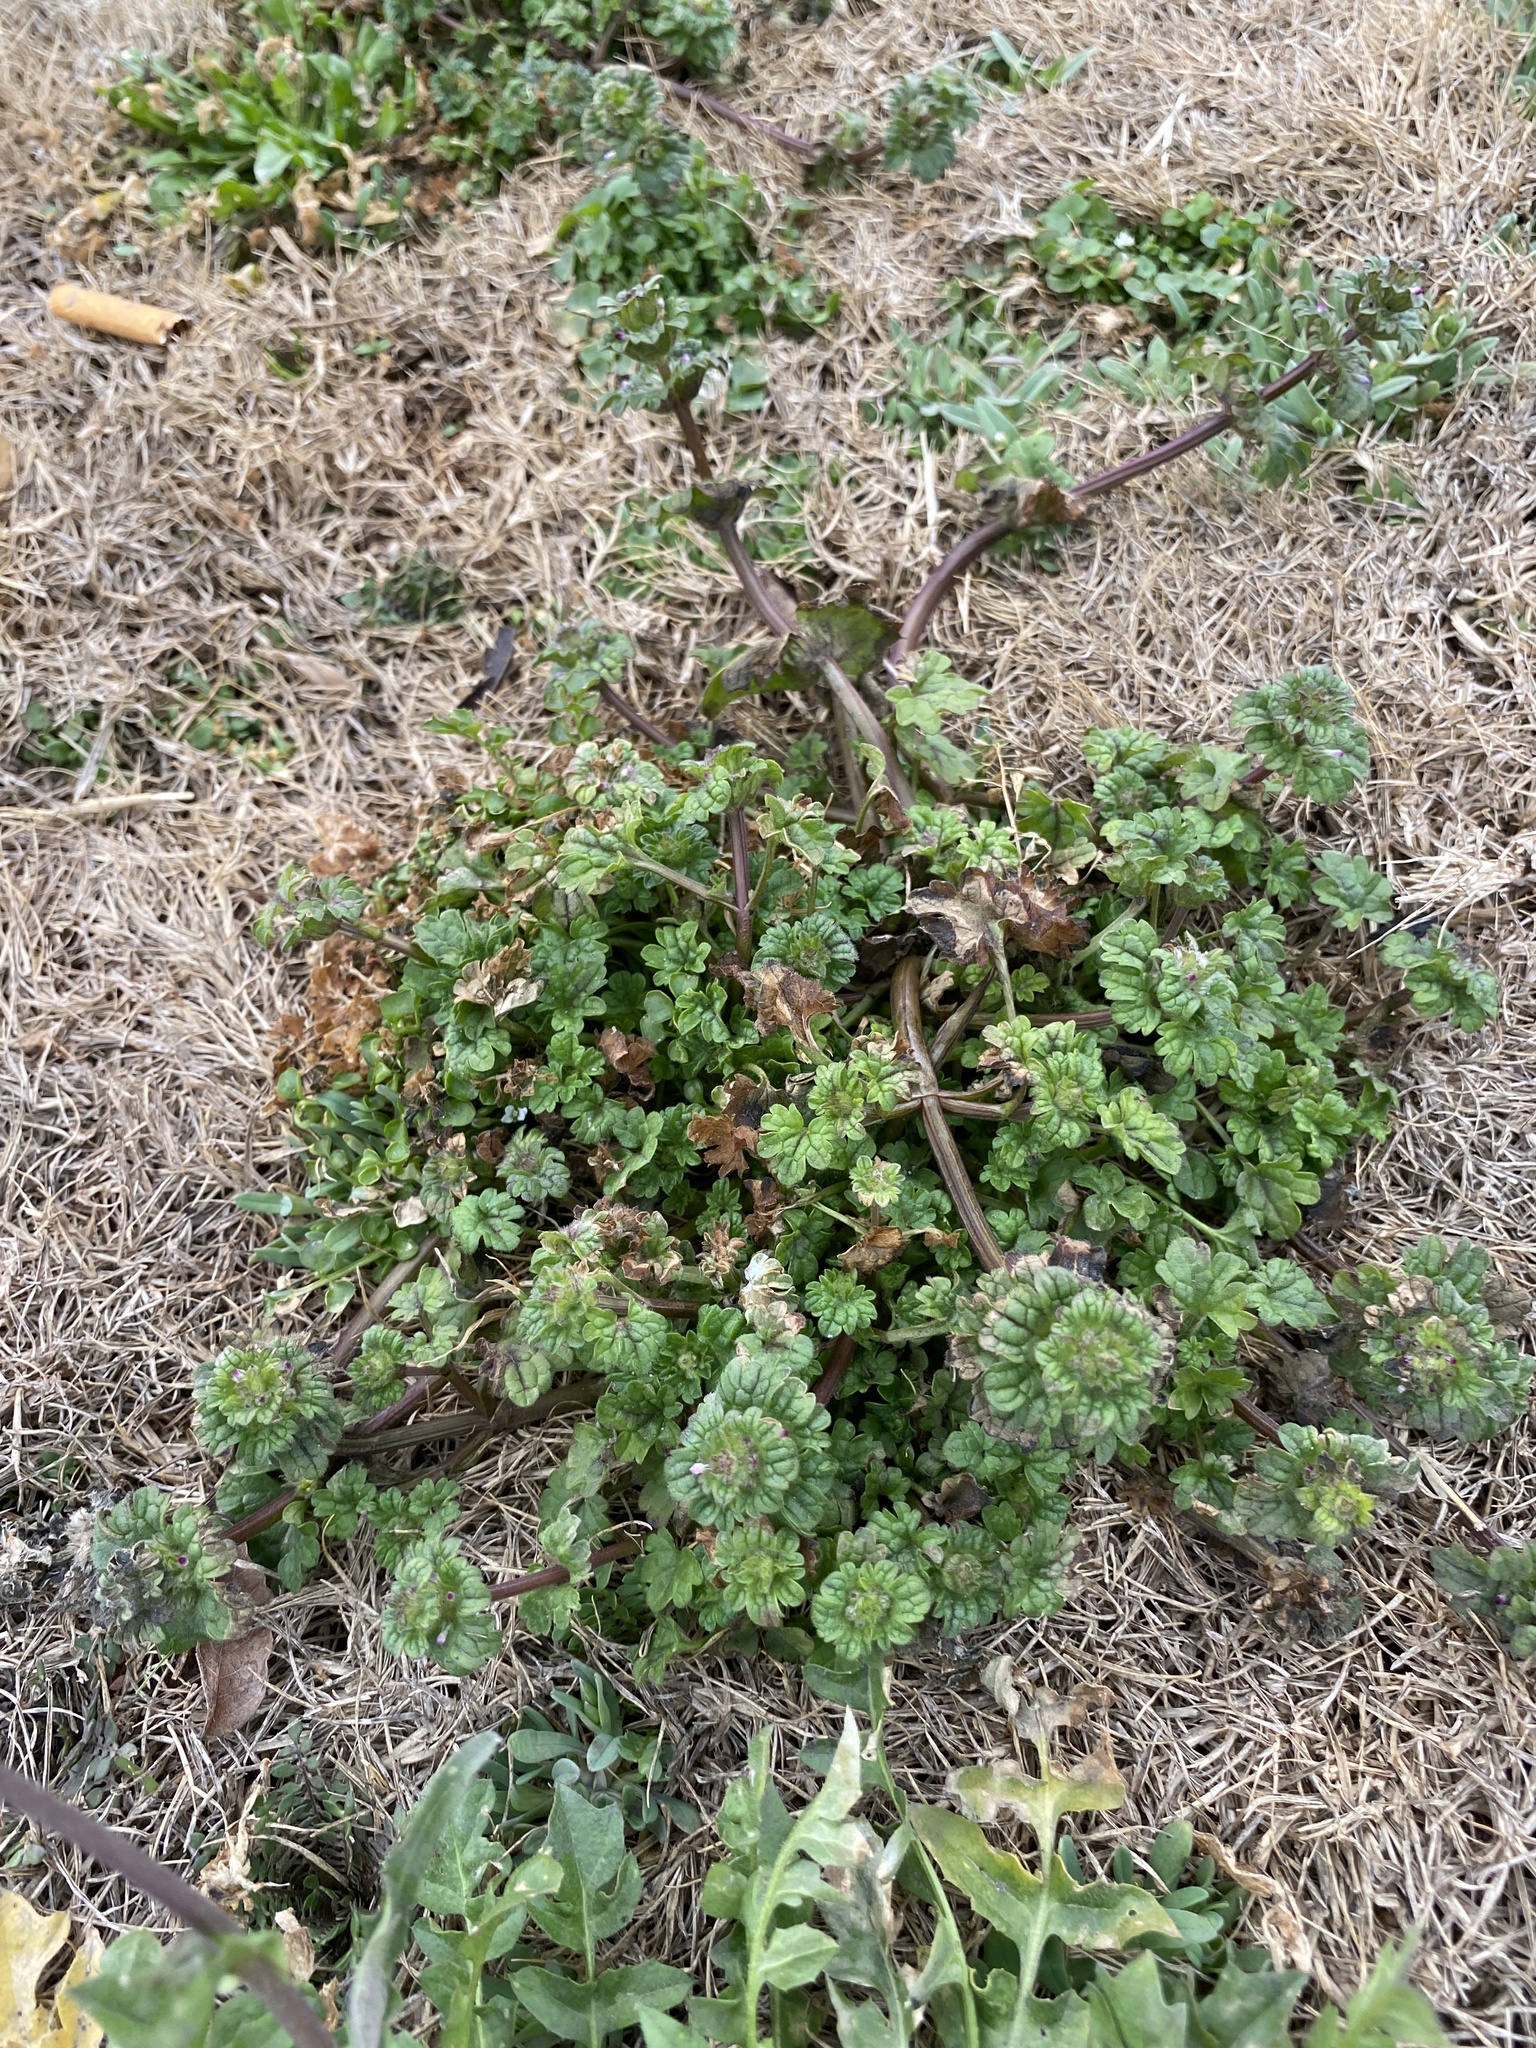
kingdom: Plantae
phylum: Tracheophyta
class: Magnoliopsida
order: Lamiales
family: Lamiaceae
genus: Lamium
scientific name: Lamium amplexicaule
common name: Henbit dead-nettle
